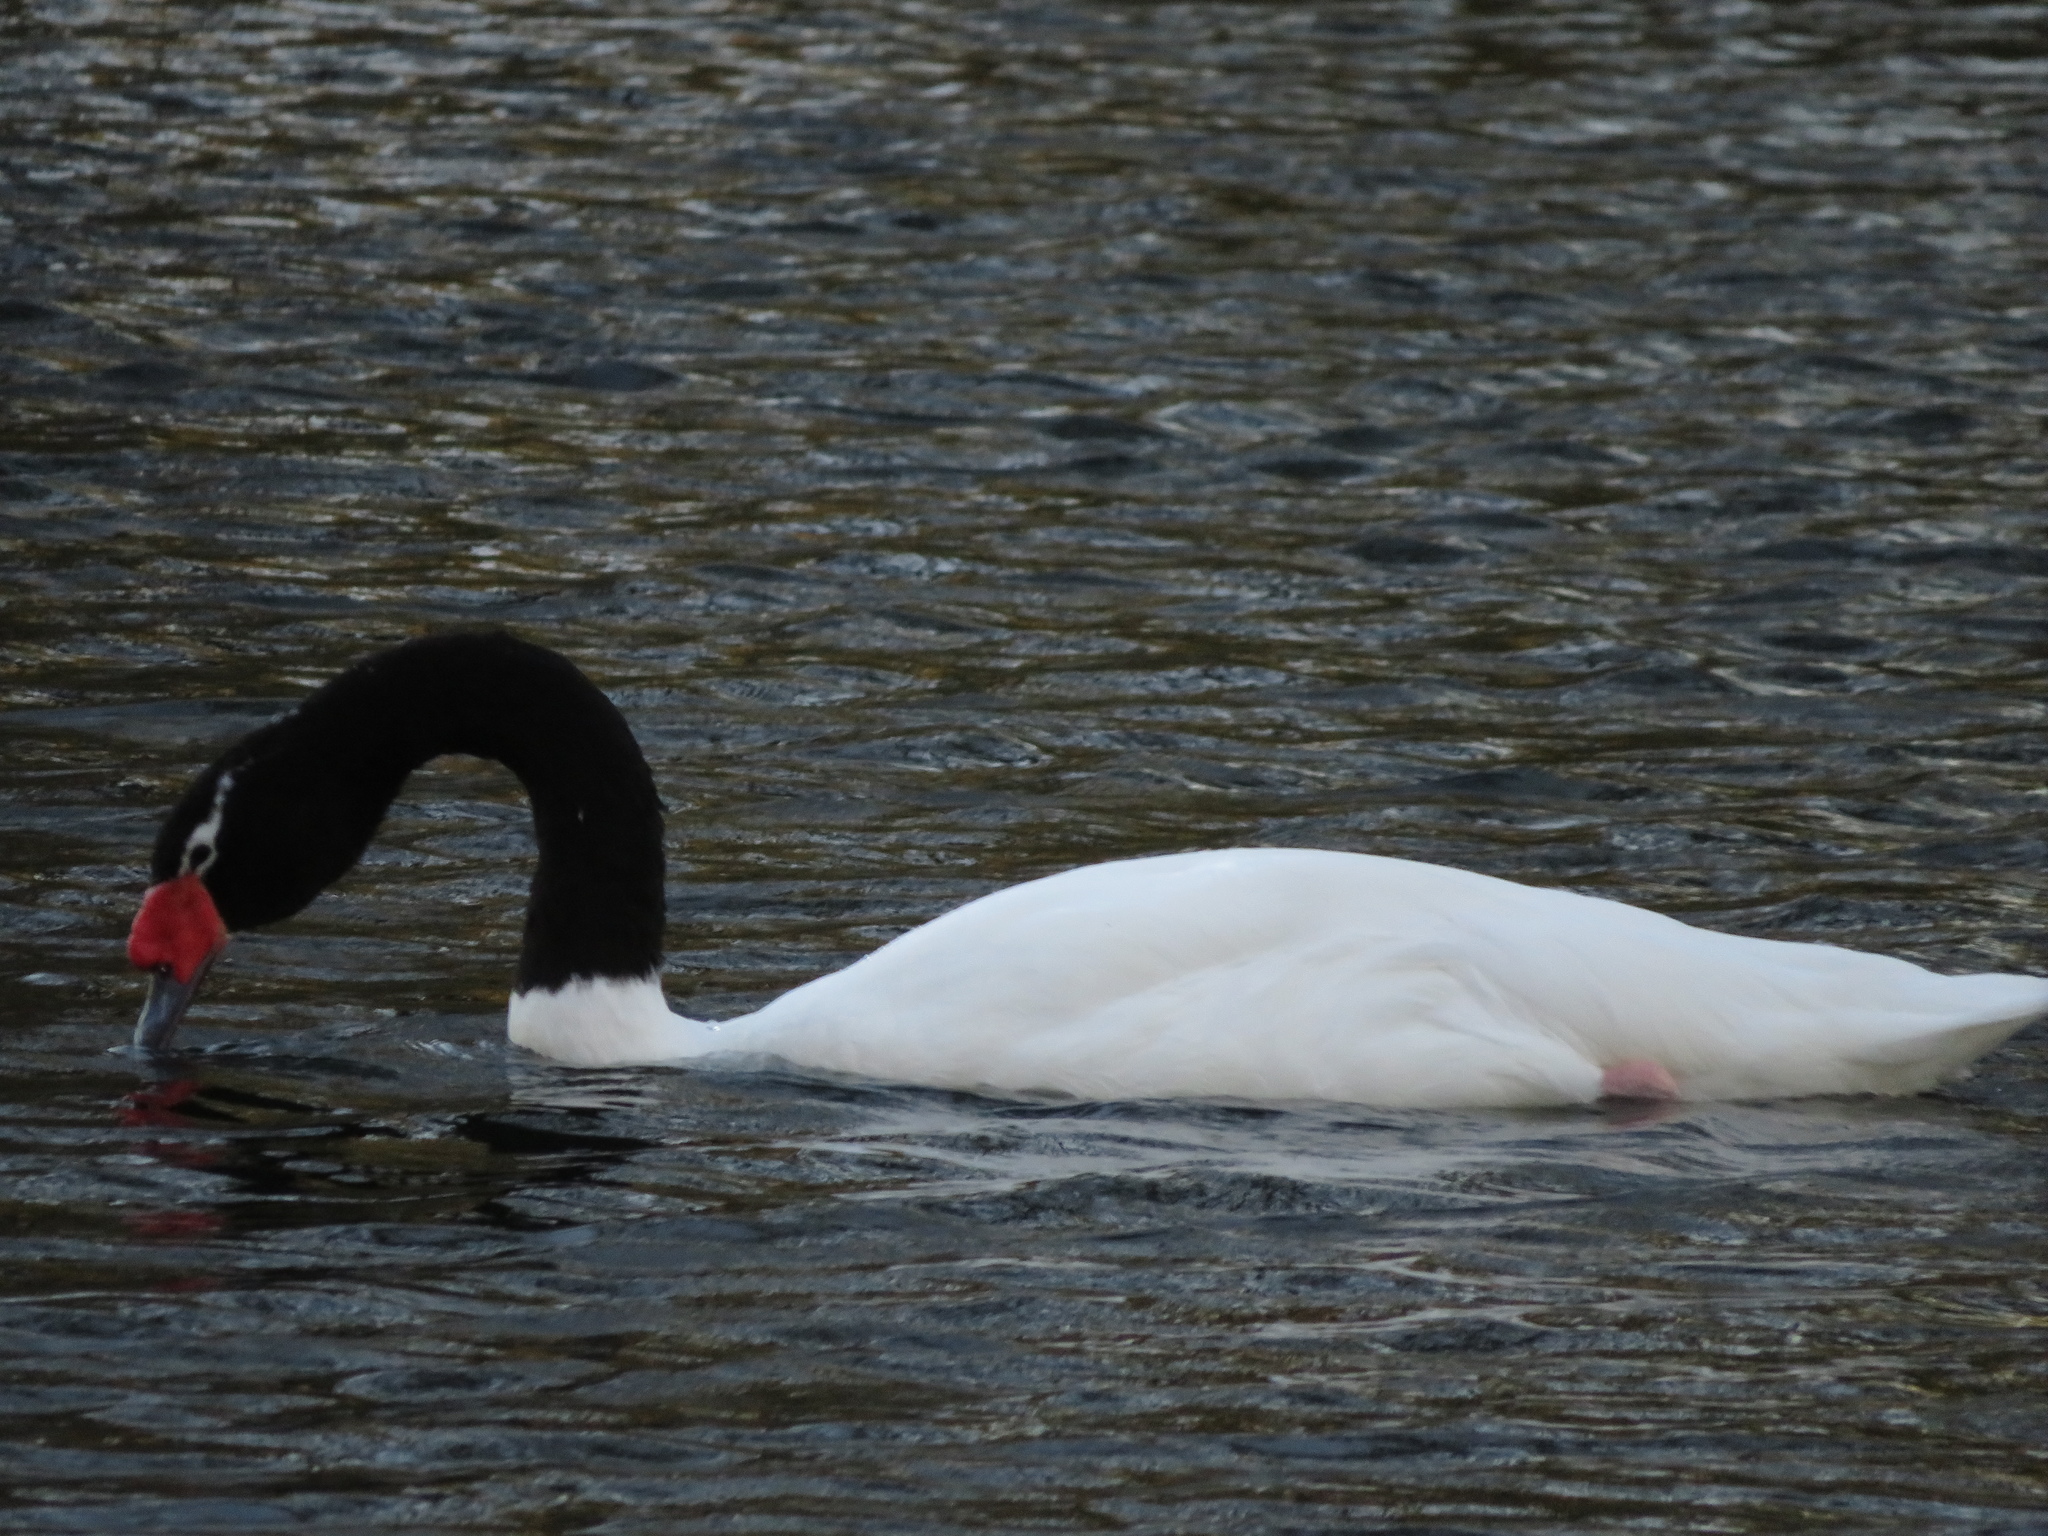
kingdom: Animalia
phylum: Chordata
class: Aves
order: Anseriformes
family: Anatidae
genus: Cygnus
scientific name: Cygnus melancoryphus
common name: Black-necked swan
